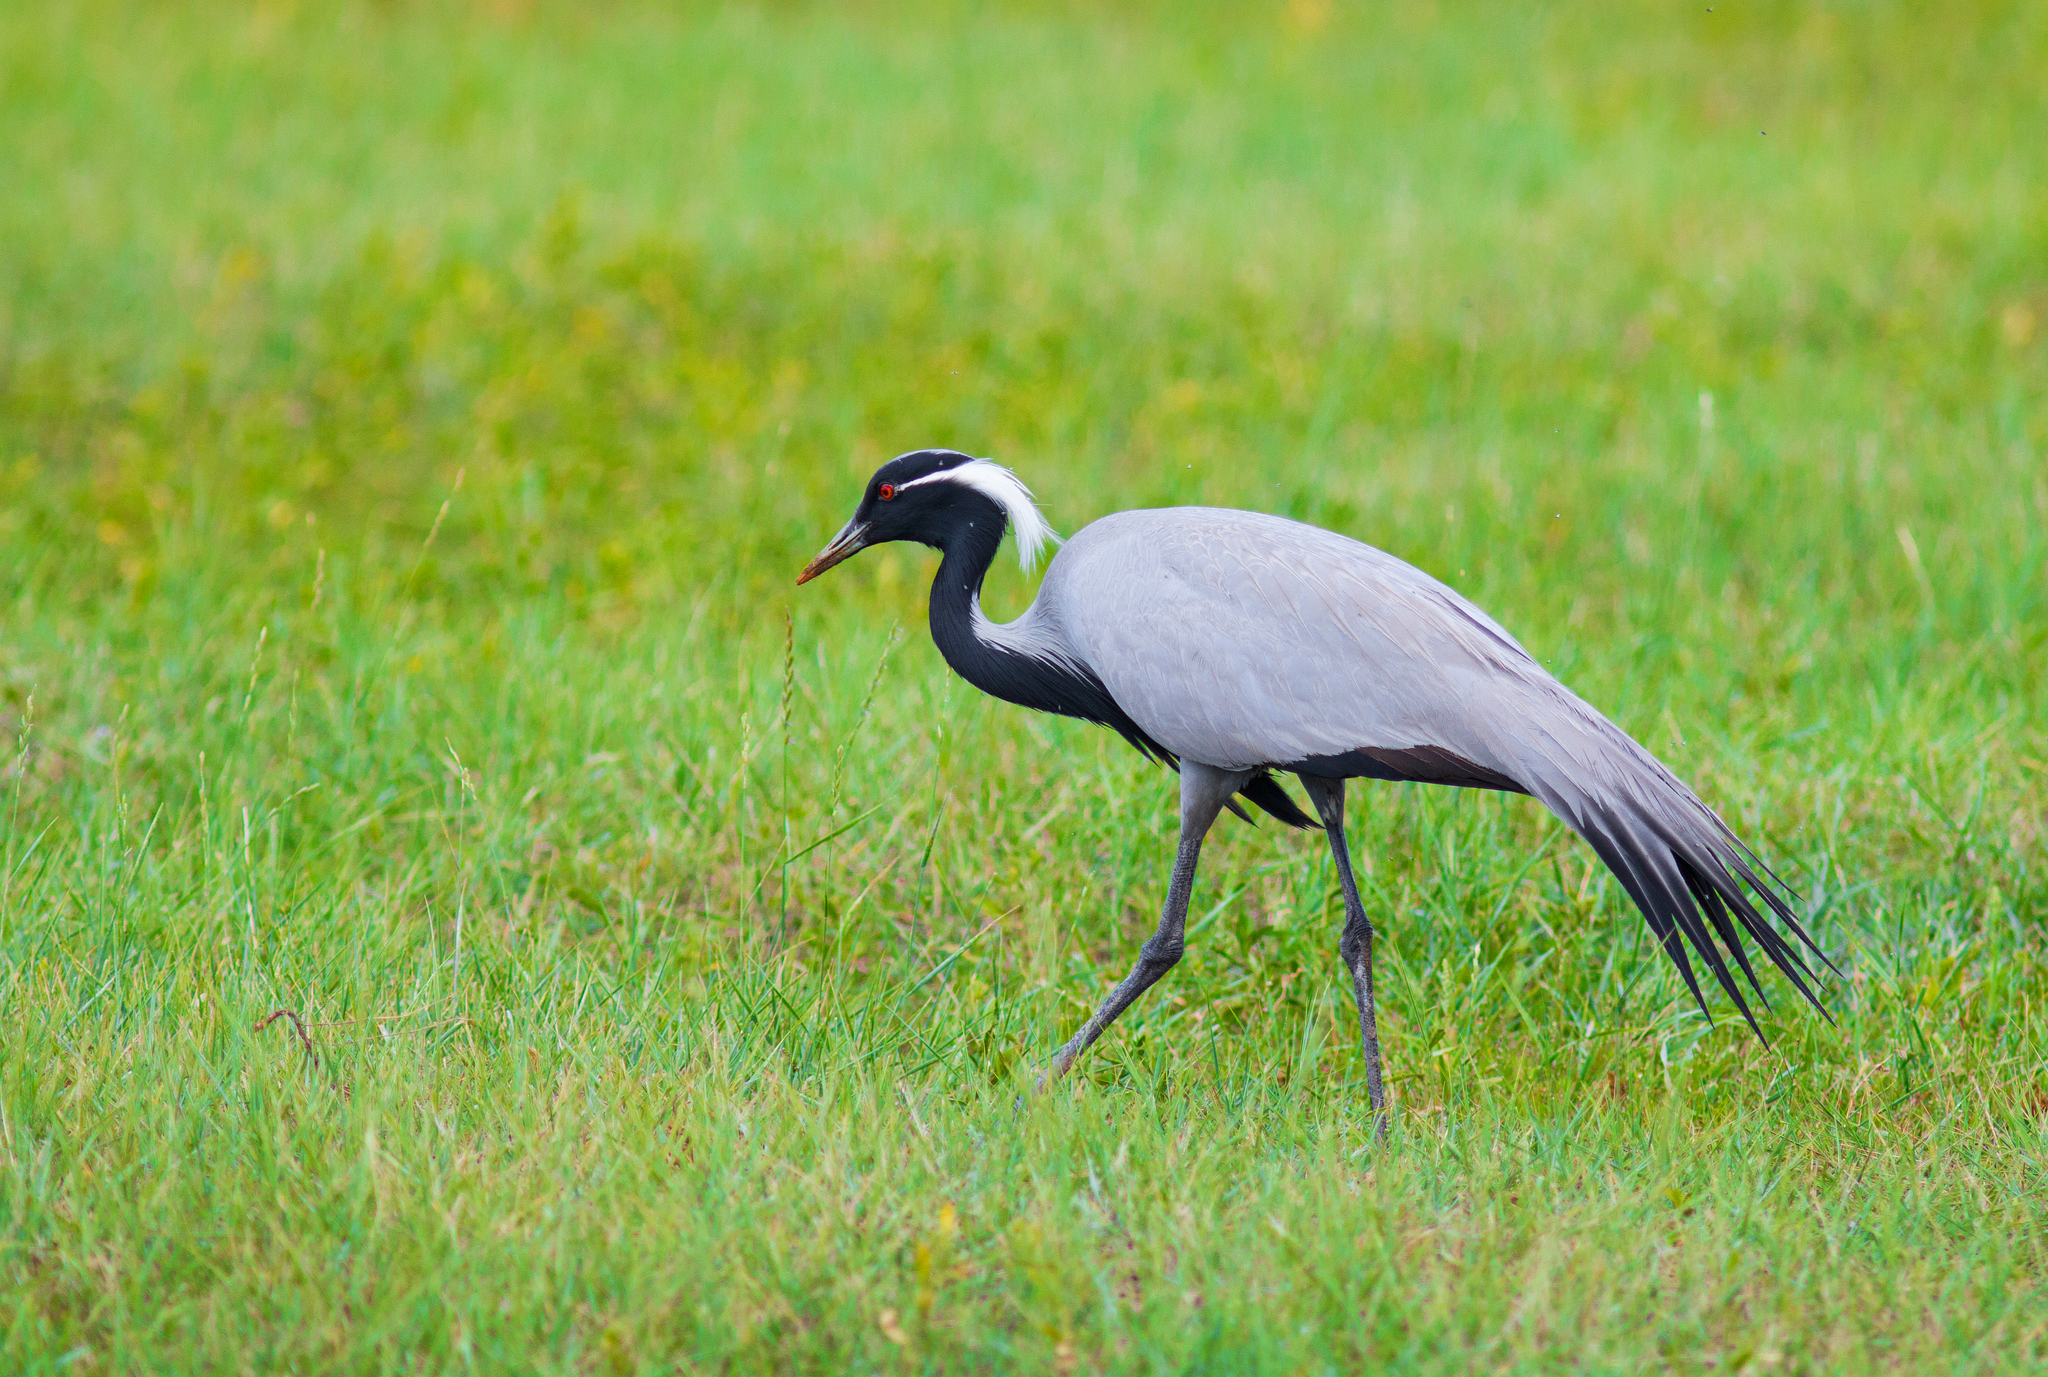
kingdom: Animalia
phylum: Chordata
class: Aves
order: Gruiformes
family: Gruidae
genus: Anthropoides
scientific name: Anthropoides virgo
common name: Demoiselle crane
